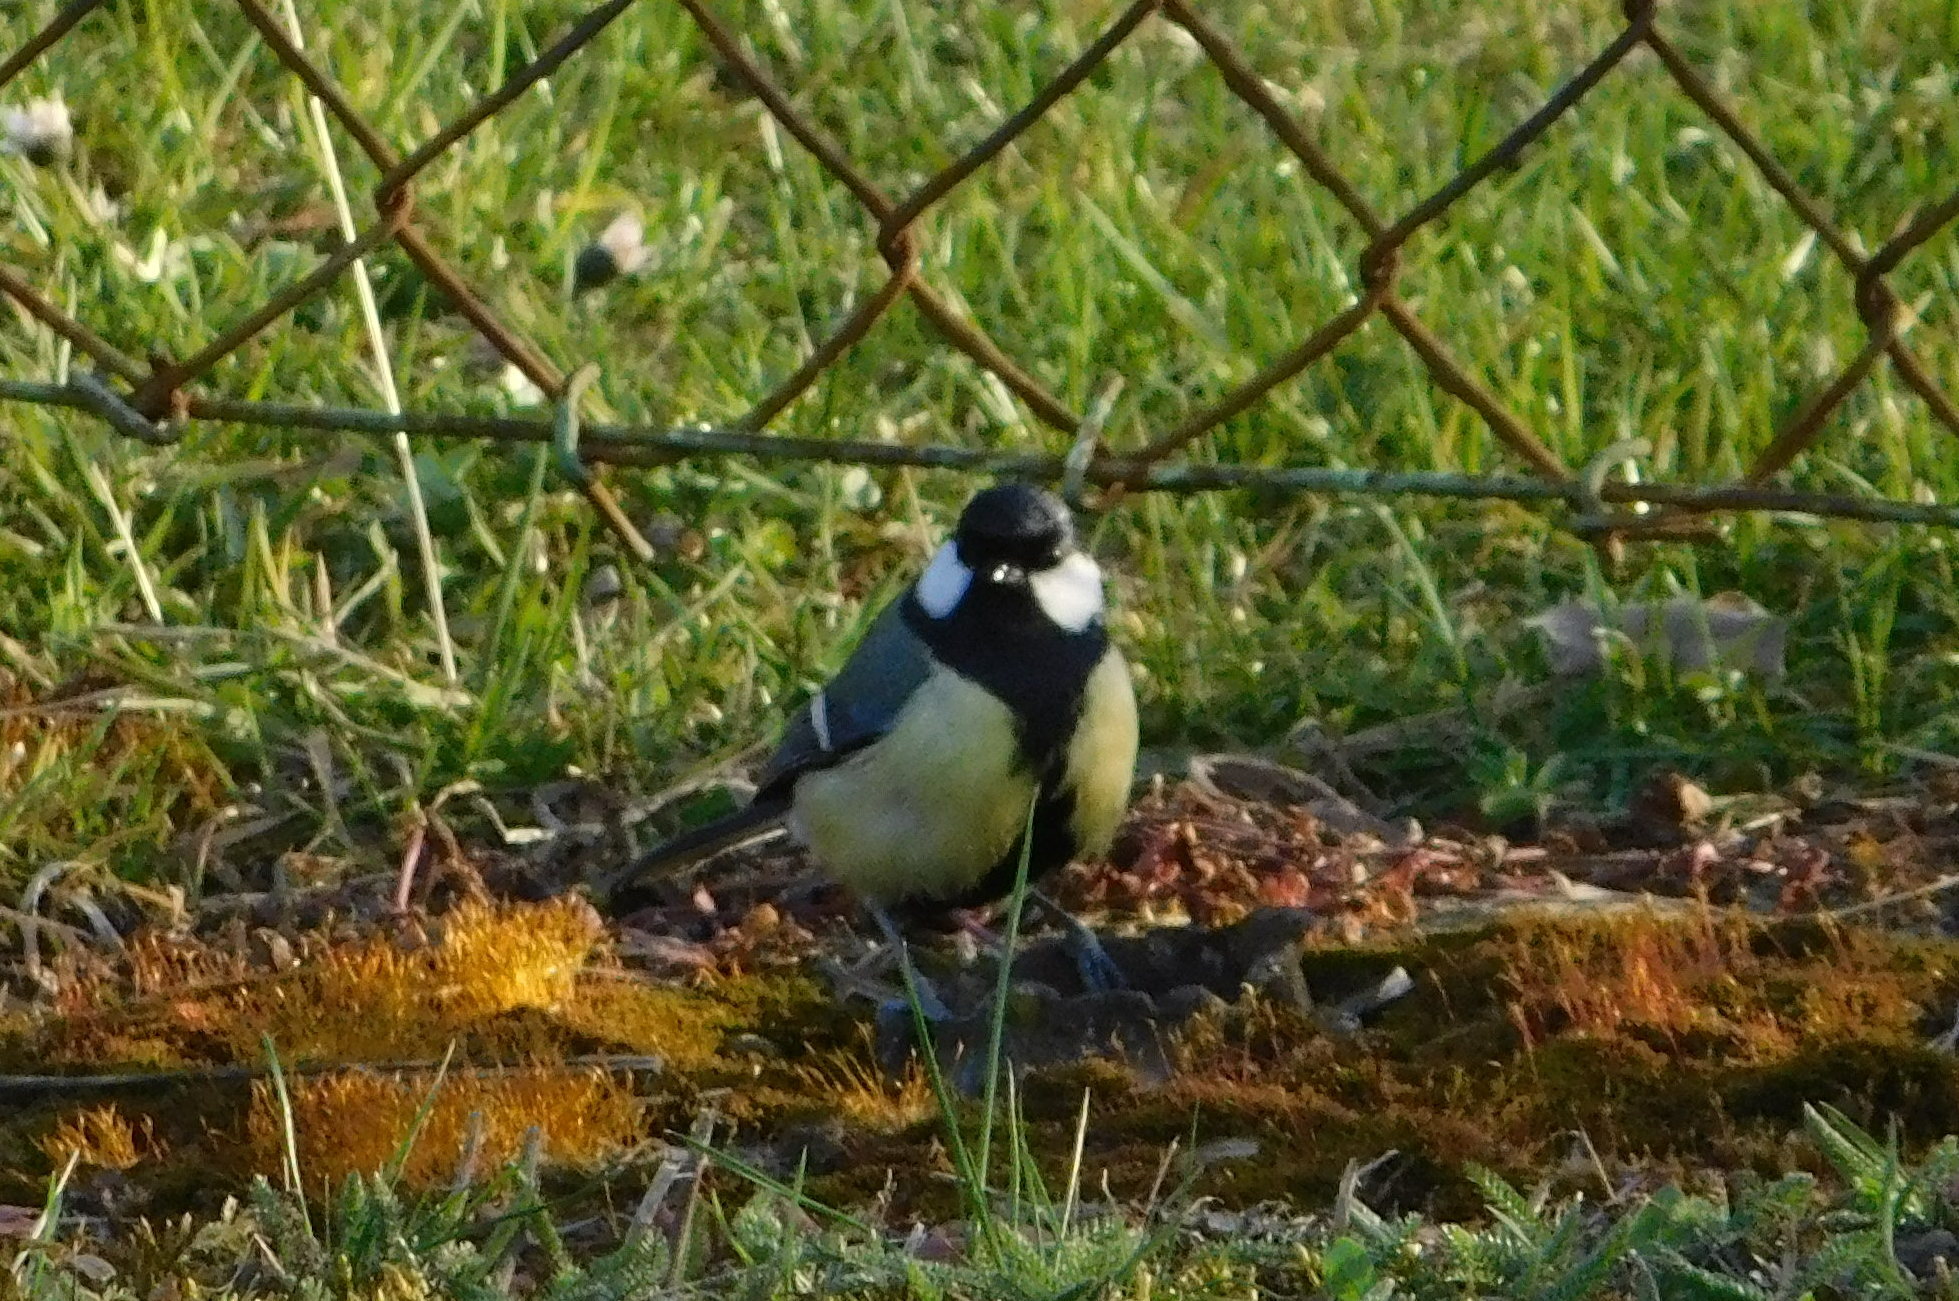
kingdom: Animalia
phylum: Chordata
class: Aves
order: Passeriformes
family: Paridae
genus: Parus
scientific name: Parus major
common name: Great tit
